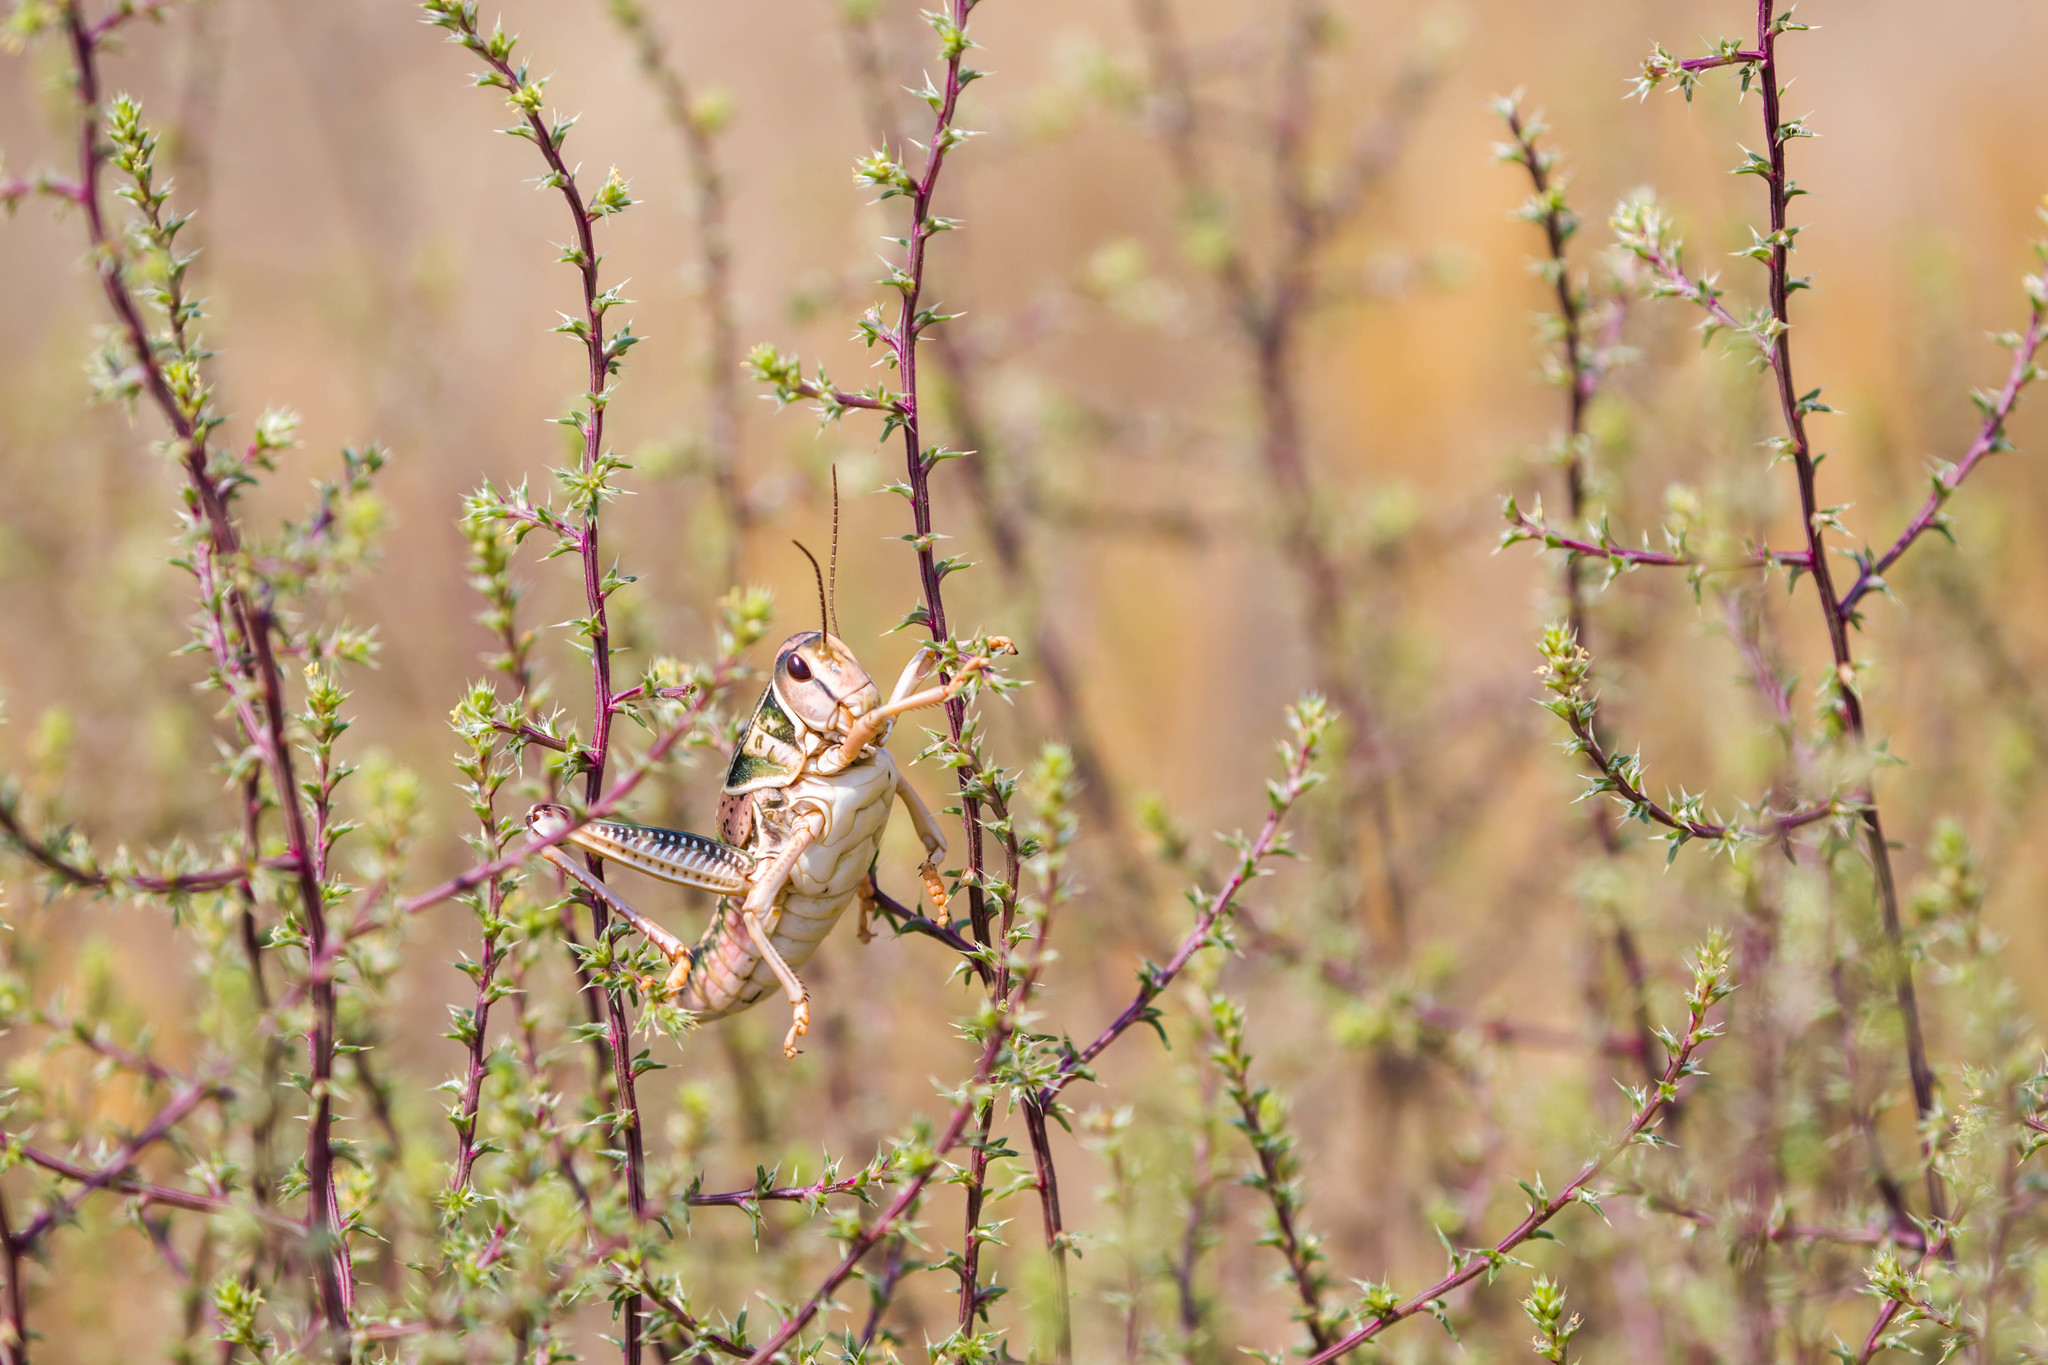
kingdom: Animalia
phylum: Arthropoda
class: Insecta
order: Orthoptera
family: Romaleidae
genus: Brachystola
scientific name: Brachystola magna
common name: Plains lubber grasshopper
